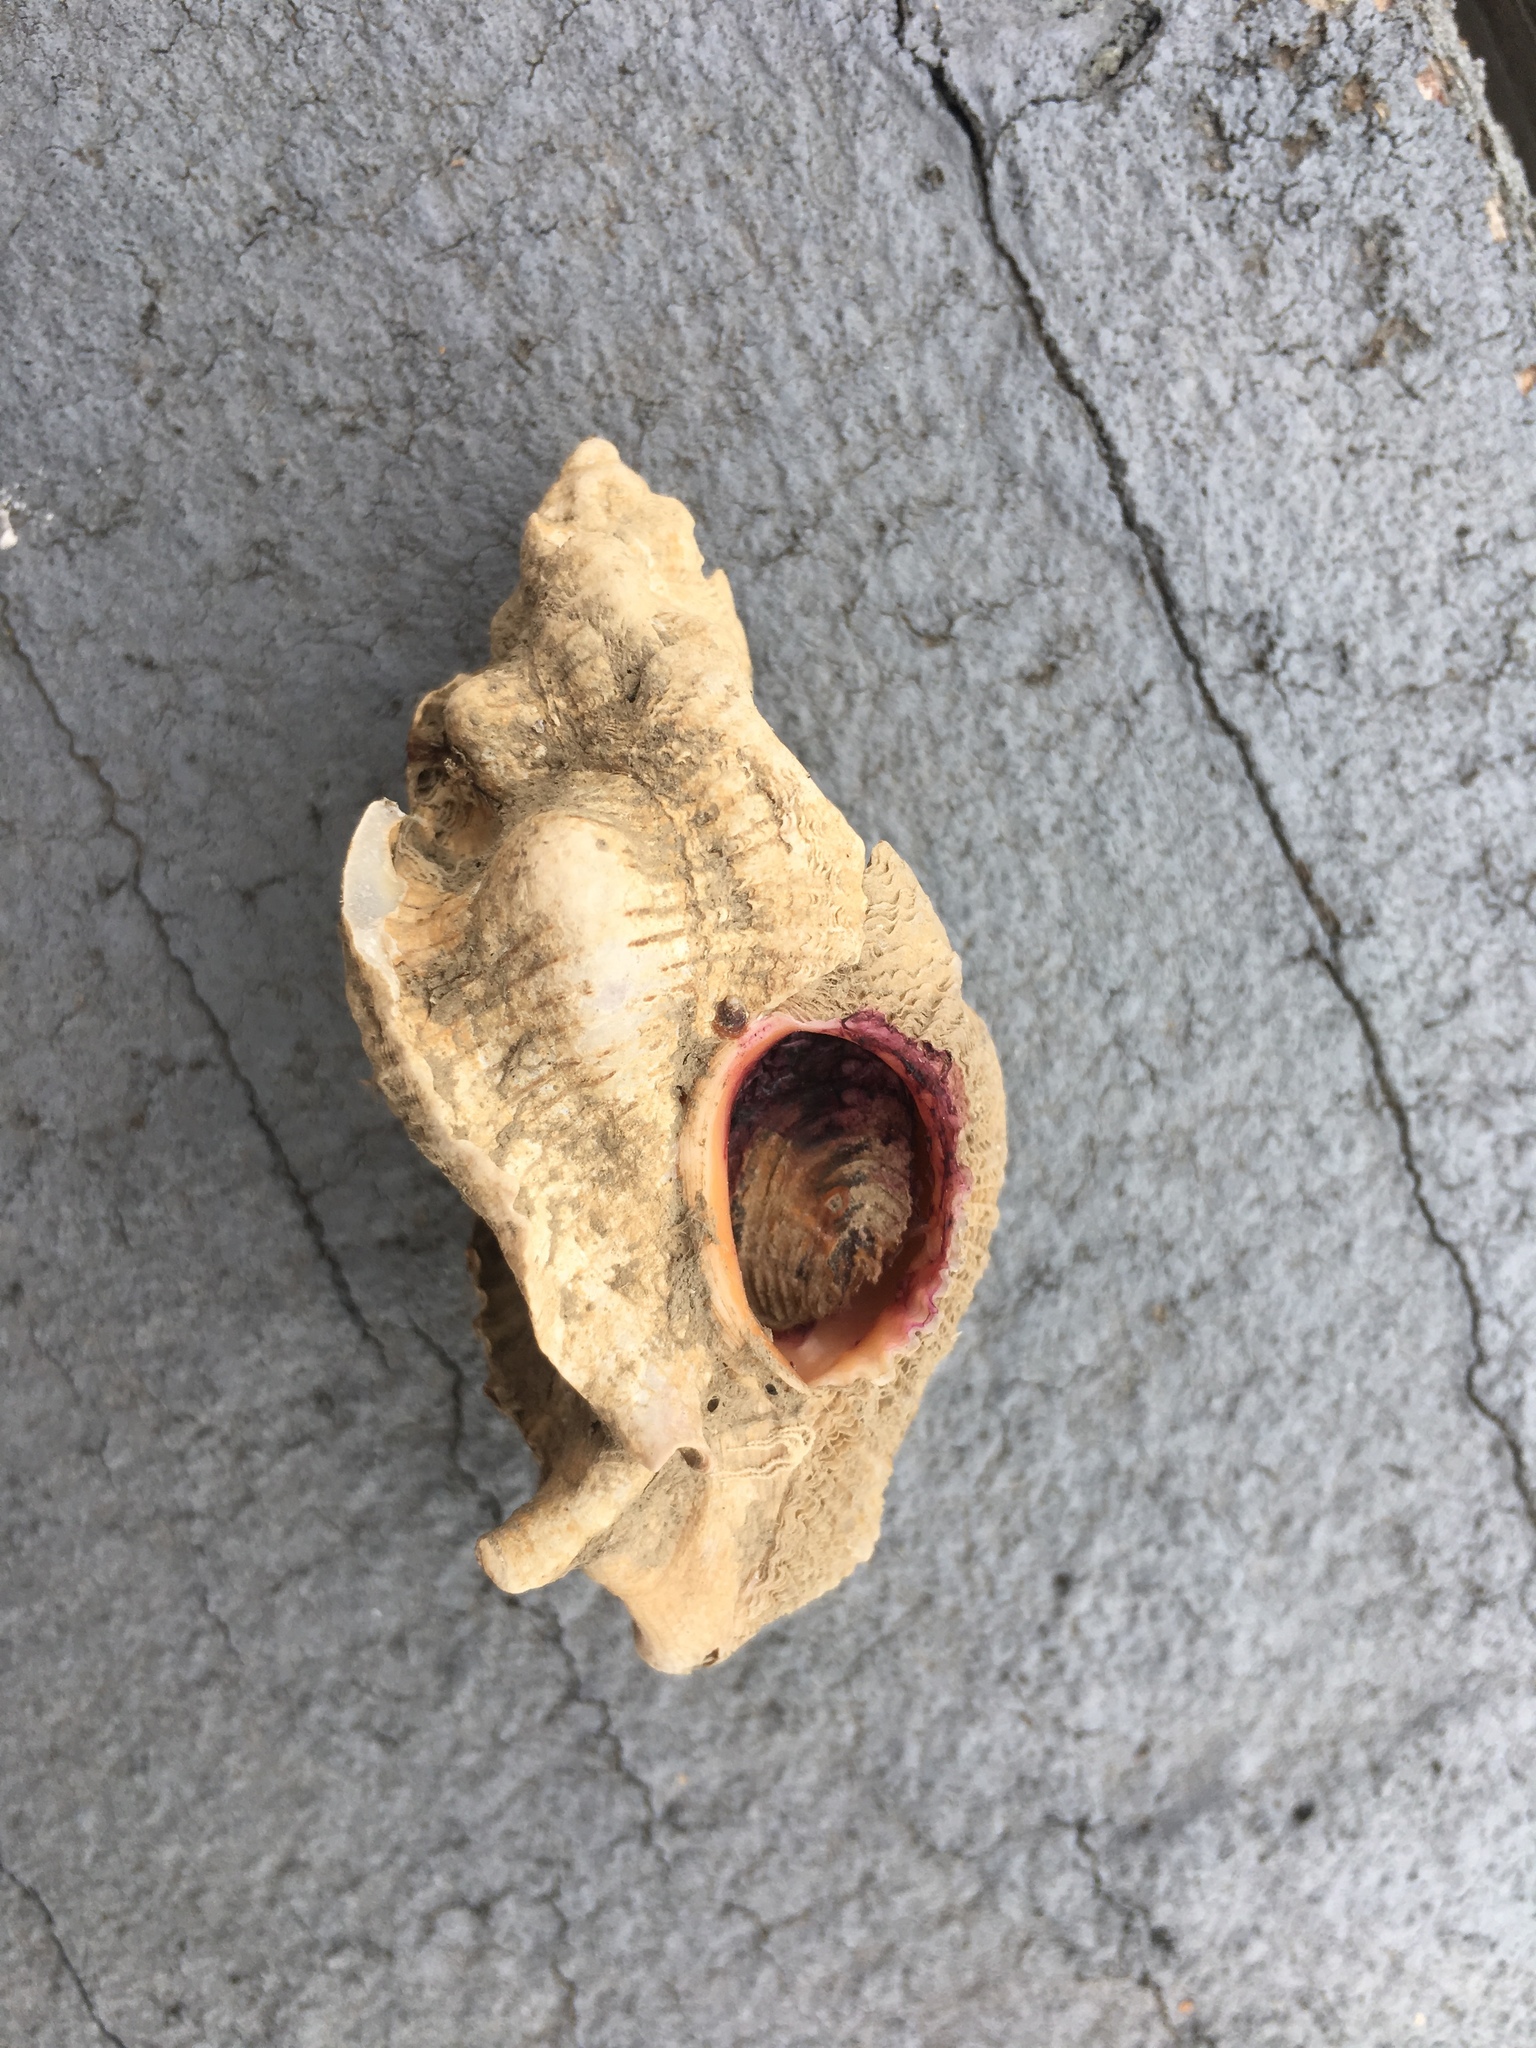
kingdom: Animalia
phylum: Mollusca
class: Gastropoda
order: Neogastropoda
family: Muricidae
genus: Pteropurpura
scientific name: Pteropurpura festiva
